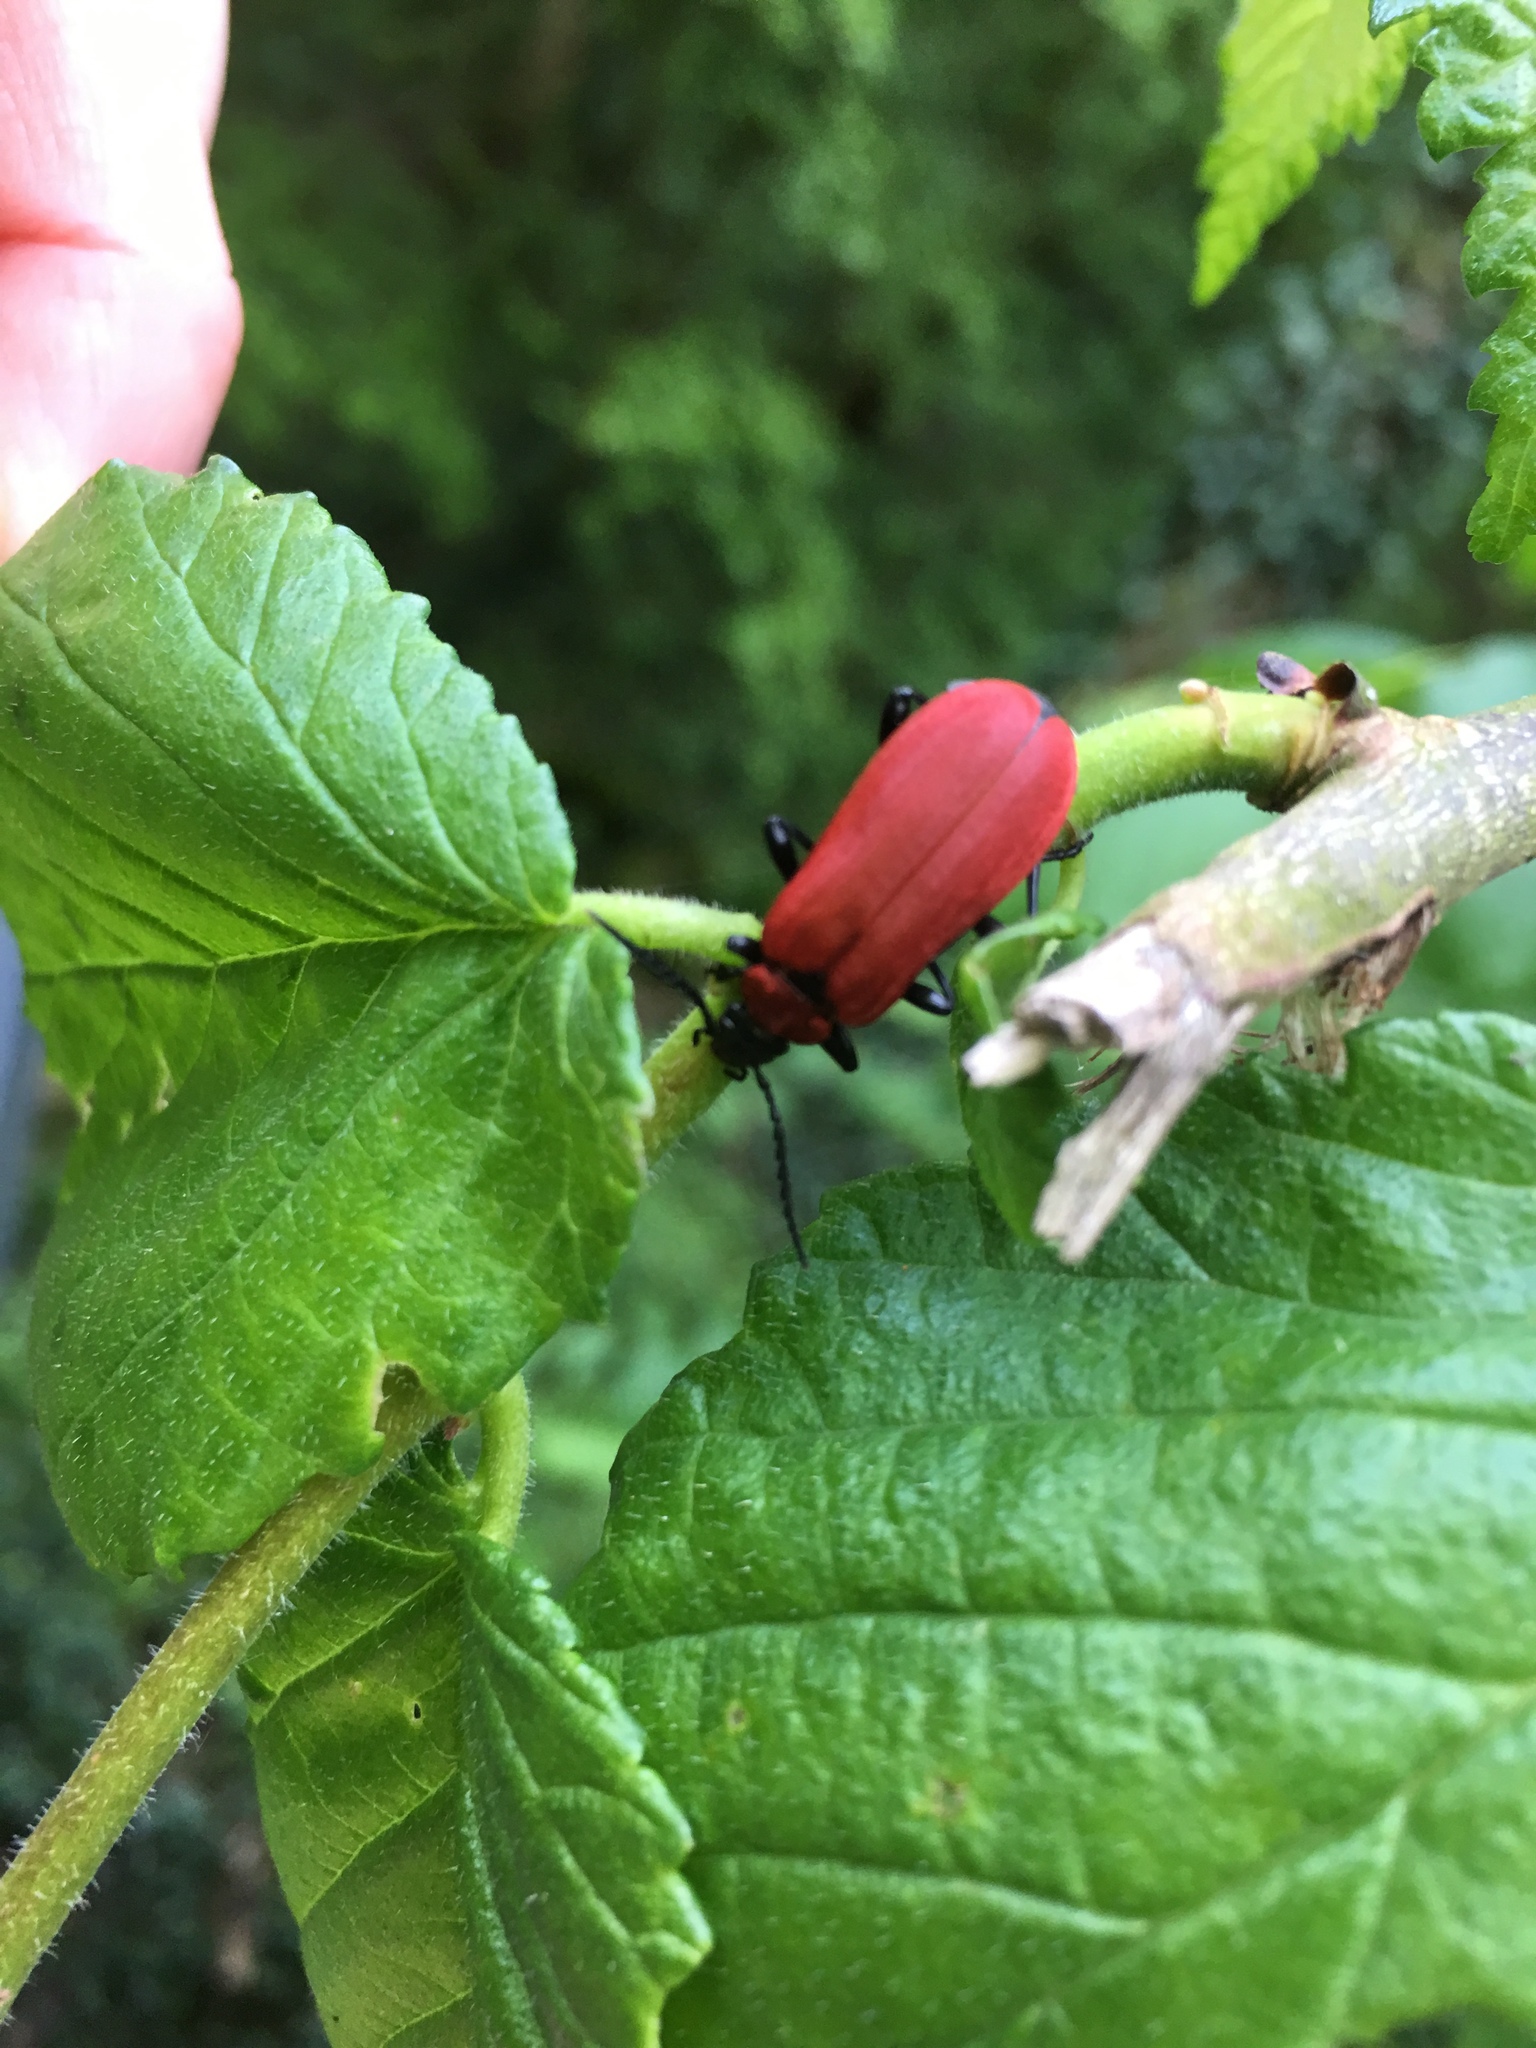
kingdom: Animalia
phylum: Arthropoda
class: Insecta
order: Coleoptera
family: Pyrochroidae
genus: Pyrochroa
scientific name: Pyrochroa coccinea
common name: Black-headed cardinal beetle
